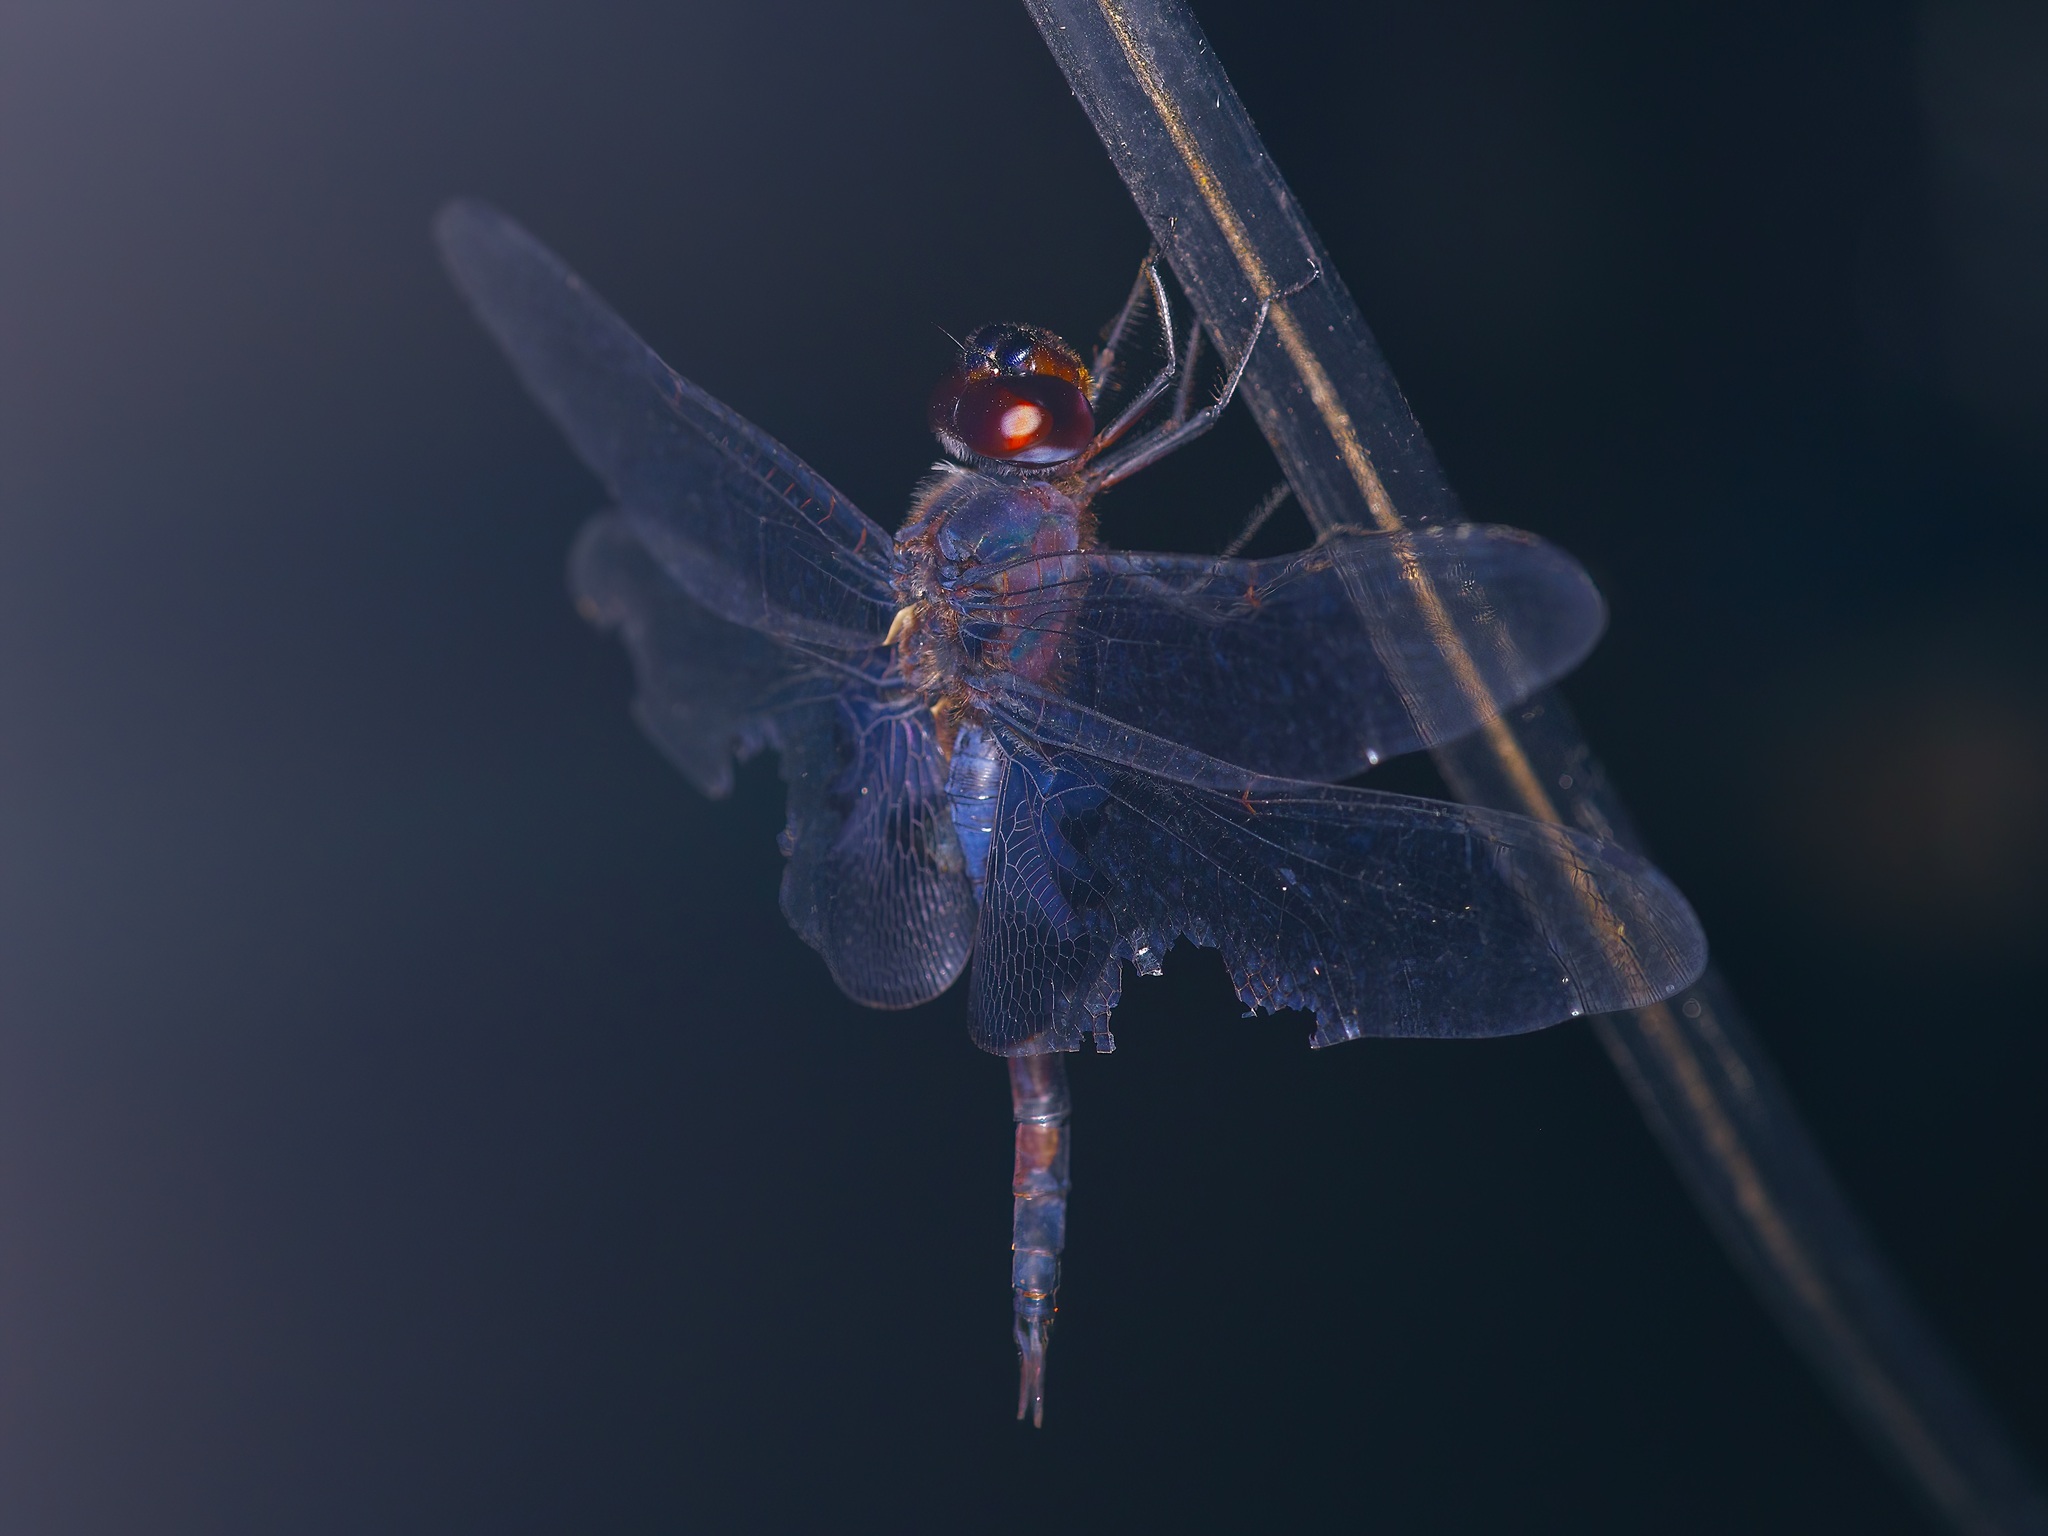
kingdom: Animalia
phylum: Arthropoda
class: Insecta
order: Odonata
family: Libellulidae
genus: Tramea
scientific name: Tramea lacerata
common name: Black saddlebags
